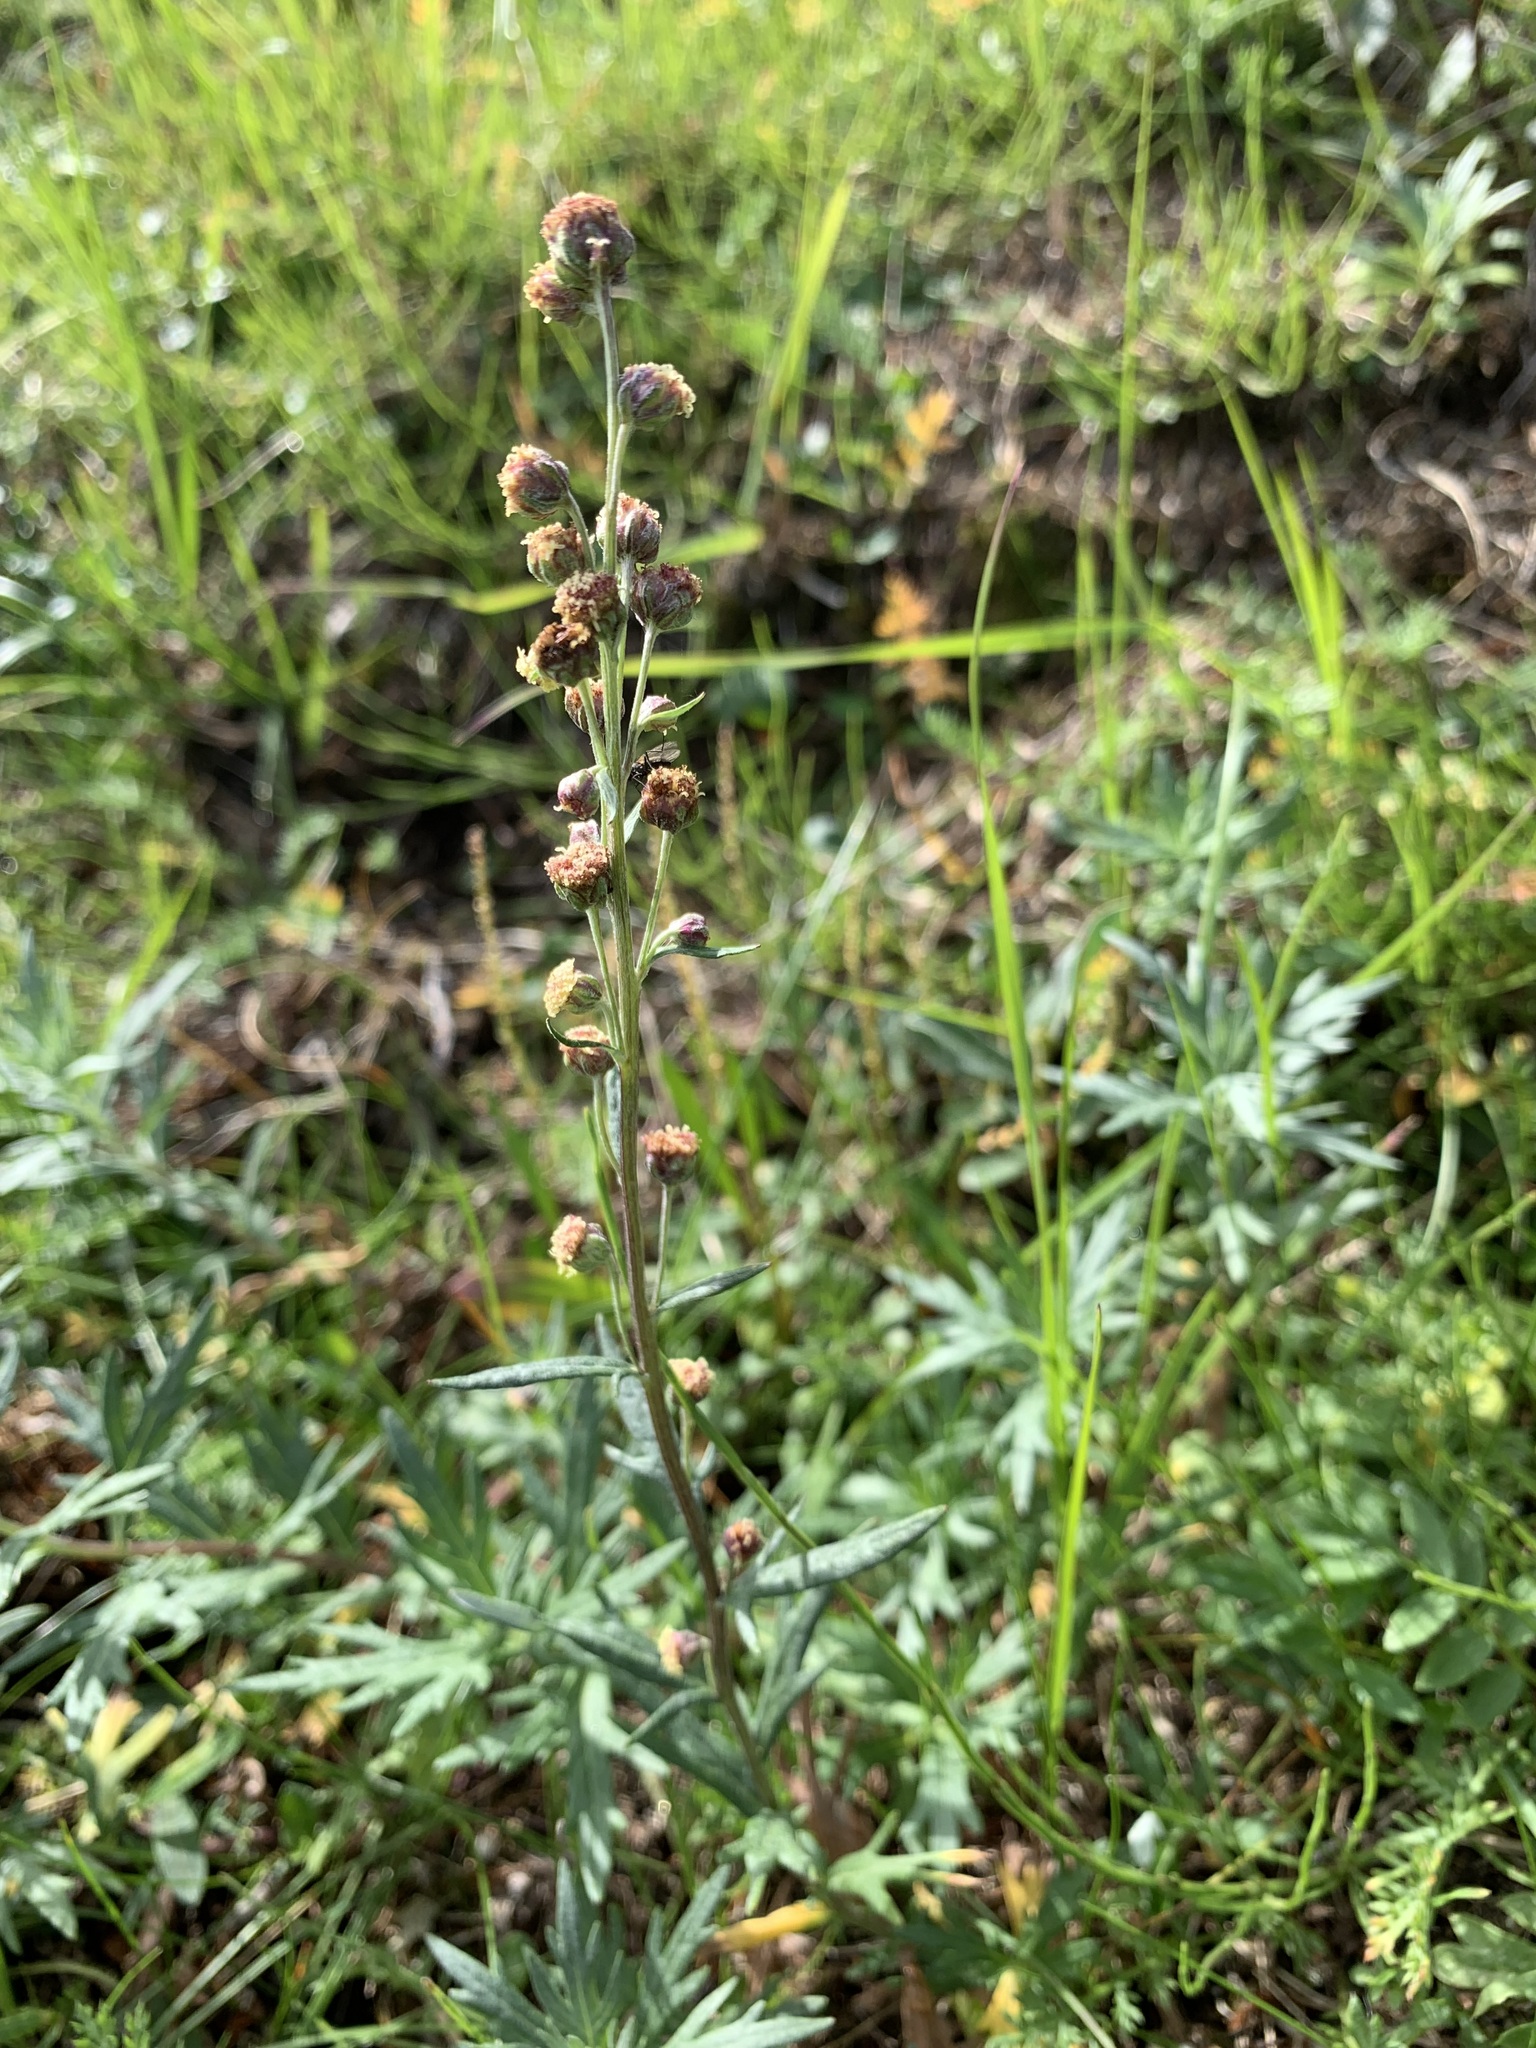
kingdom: Plantae
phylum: Tracheophyta
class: Magnoliopsida
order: Asterales
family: Asteraceae
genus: Artemisia
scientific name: Artemisia tilesii
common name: Aleutian mugwort
